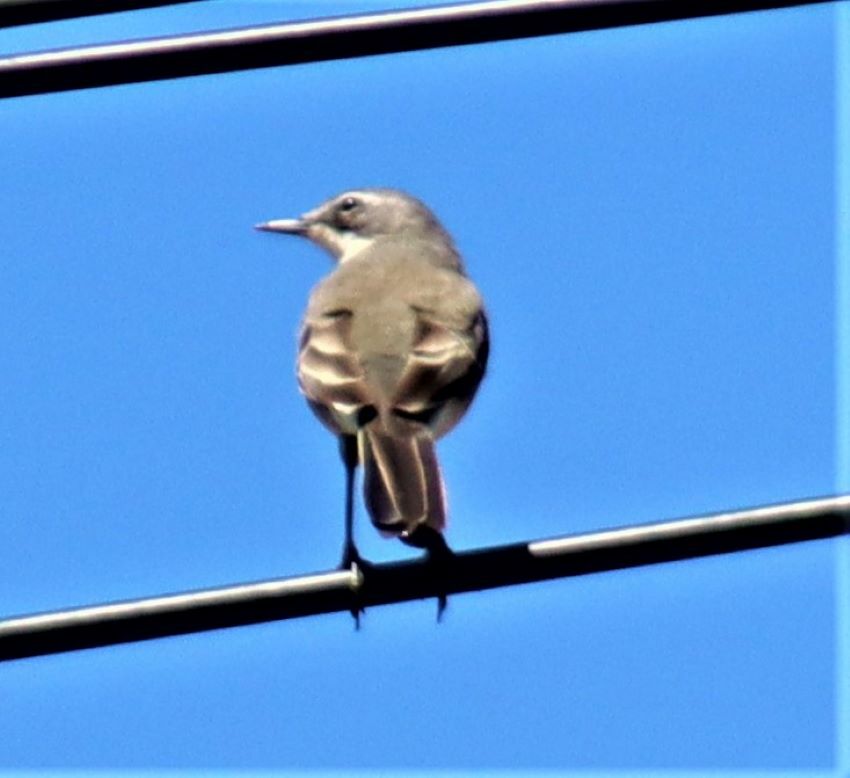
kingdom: Animalia
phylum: Chordata
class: Aves
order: Passeriformes
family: Motacillidae
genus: Motacilla
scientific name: Motacilla capensis
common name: Cape wagtail
